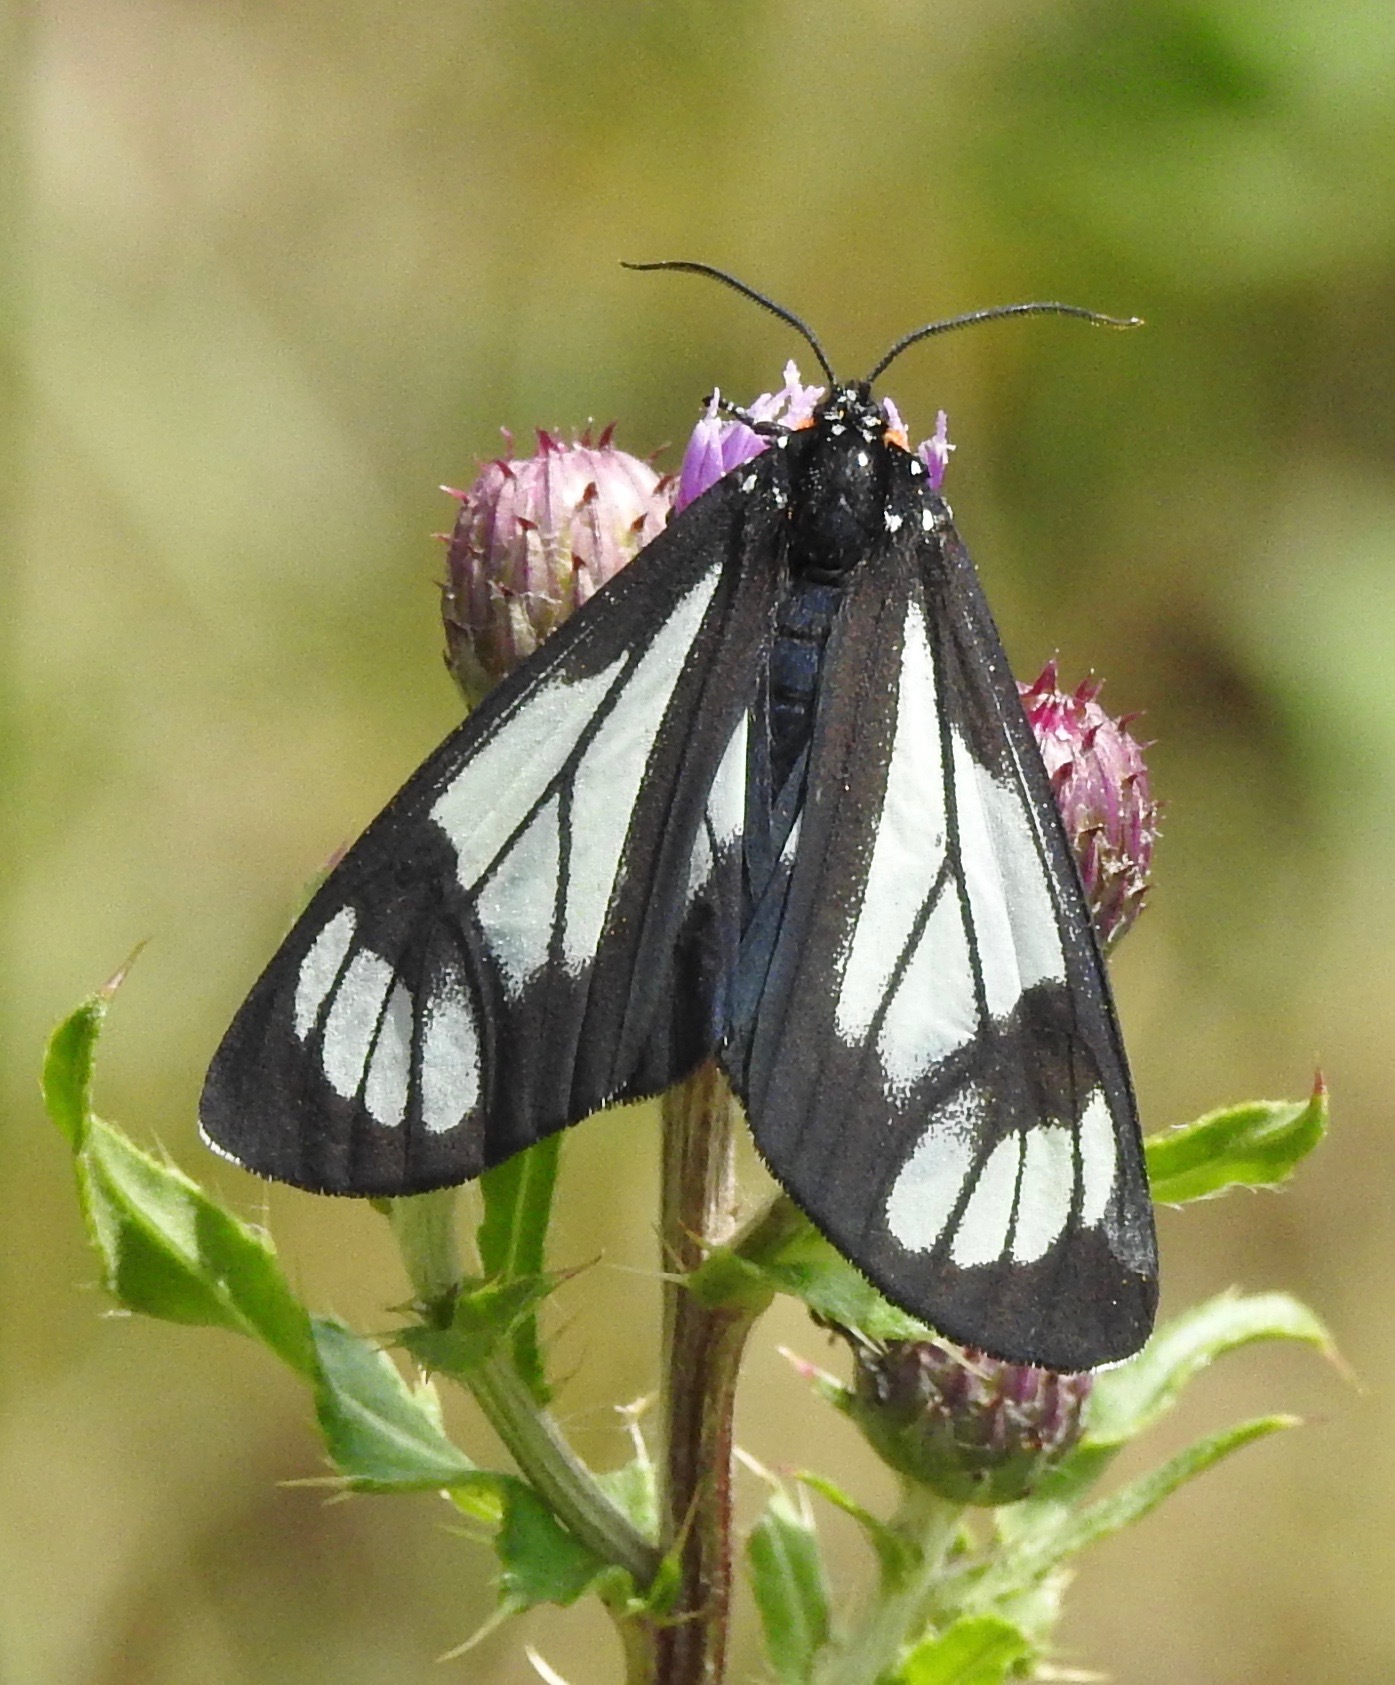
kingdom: Animalia
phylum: Arthropoda
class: Insecta
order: Lepidoptera
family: Erebidae
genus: Gnophaela
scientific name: Gnophaela vermiculata
